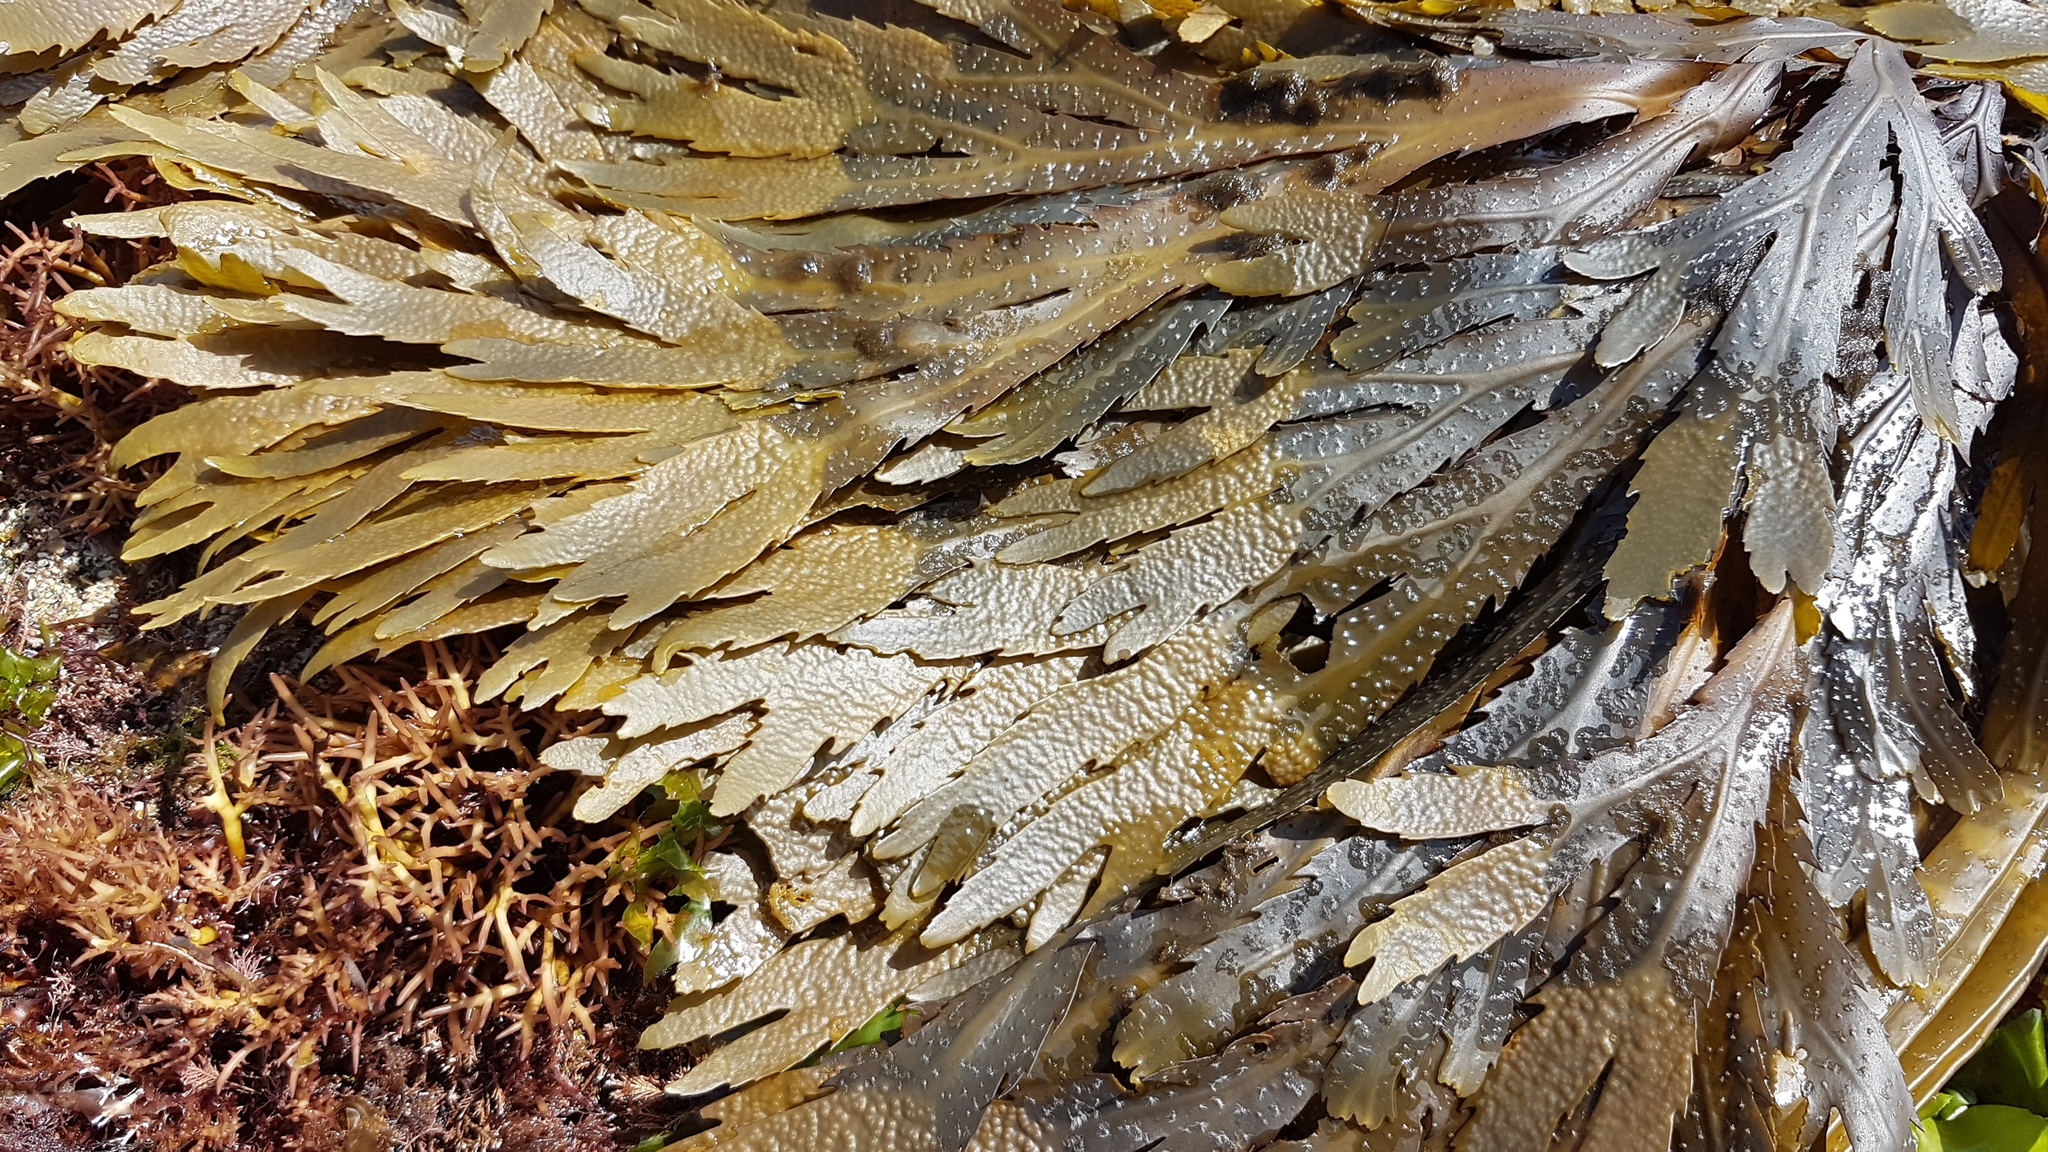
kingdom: Chromista
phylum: Ochrophyta
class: Phaeophyceae
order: Fucales
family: Fucaceae
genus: Fucus
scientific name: Fucus serratus
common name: Toothed wrack
